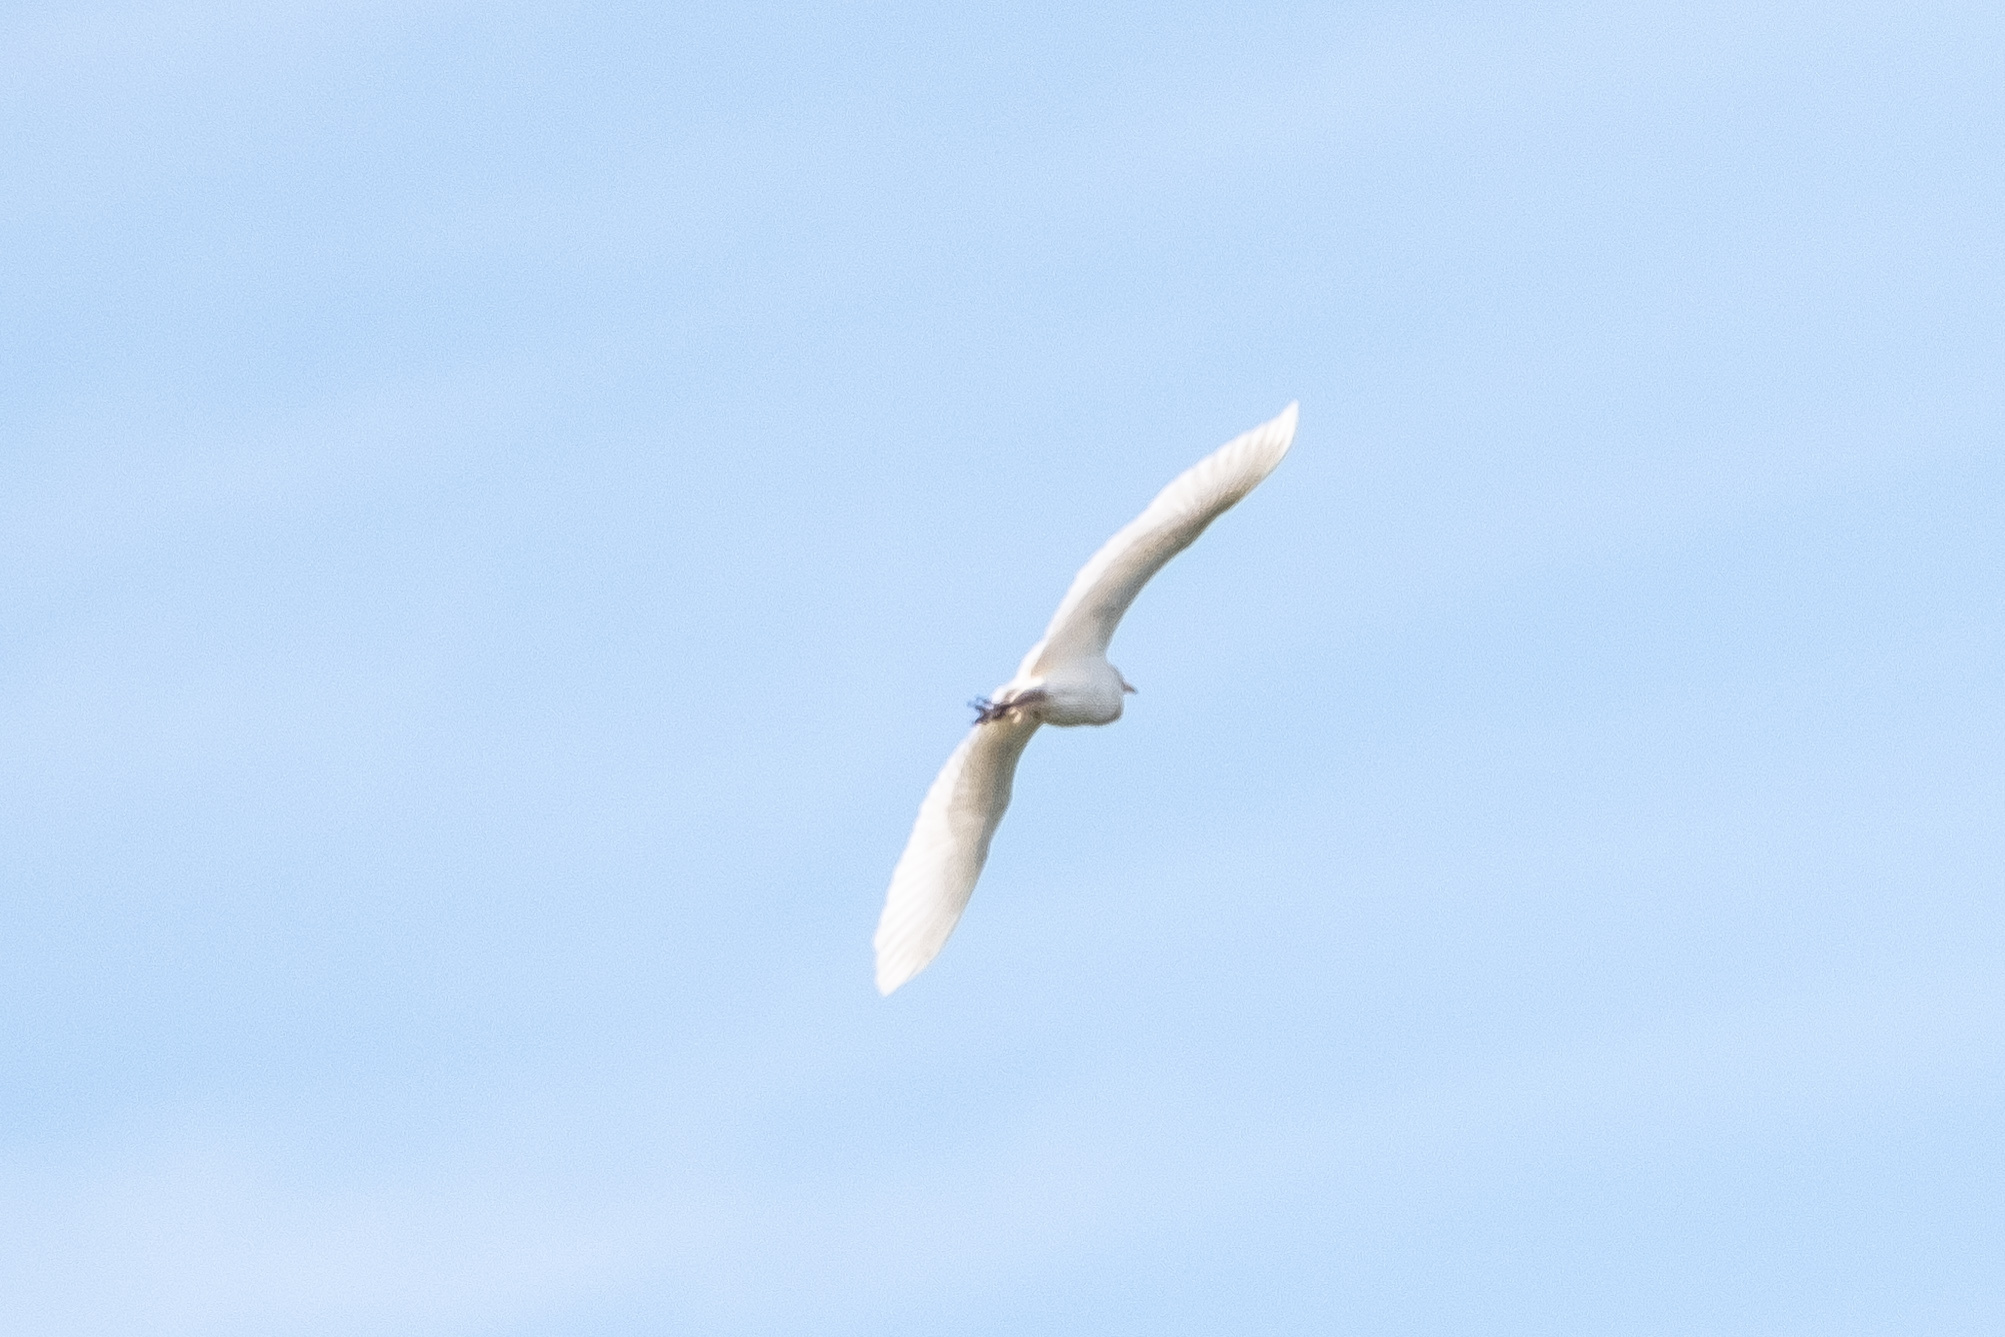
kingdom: Animalia
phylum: Chordata
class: Aves
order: Pelecaniformes
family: Ardeidae
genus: Bubulcus
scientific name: Bubulcus ibis
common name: Cattle egret
